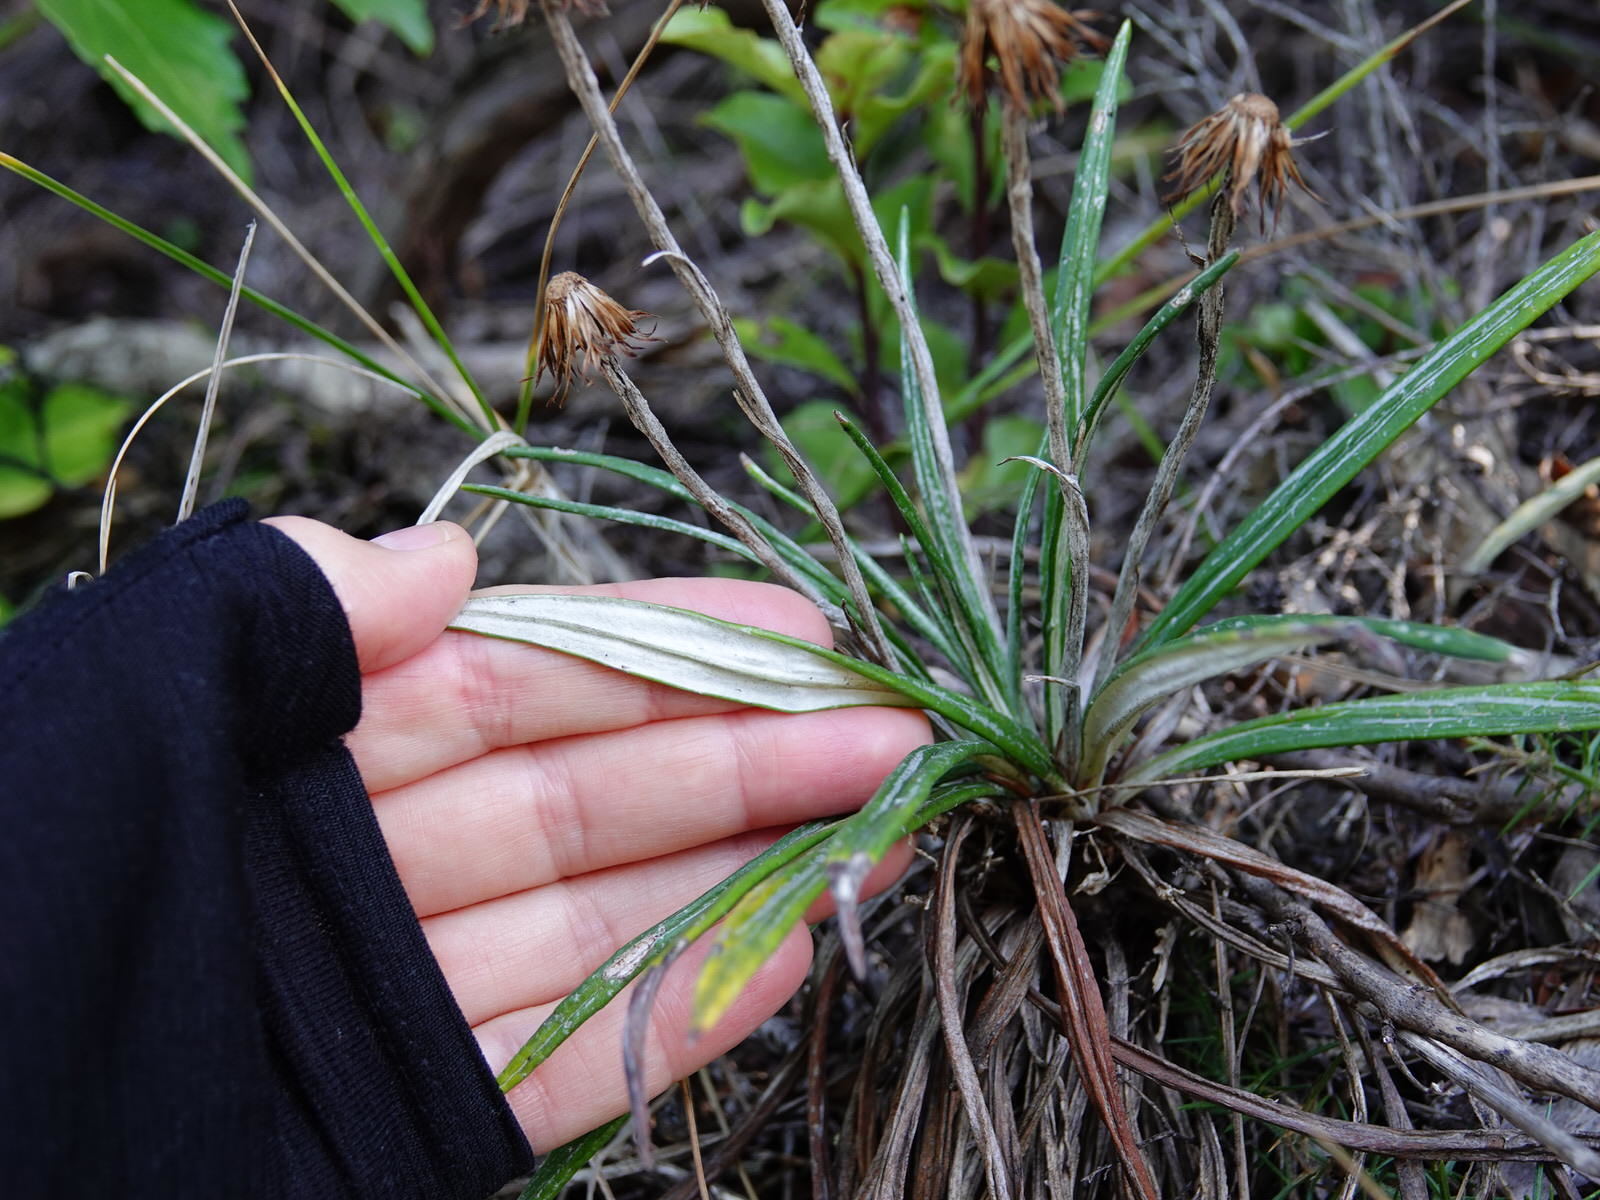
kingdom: Plantae
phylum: Tracheophyta
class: Magnoliopsida
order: Asterales
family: Asteraceae
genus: Celmisia
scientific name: Celmisia major
